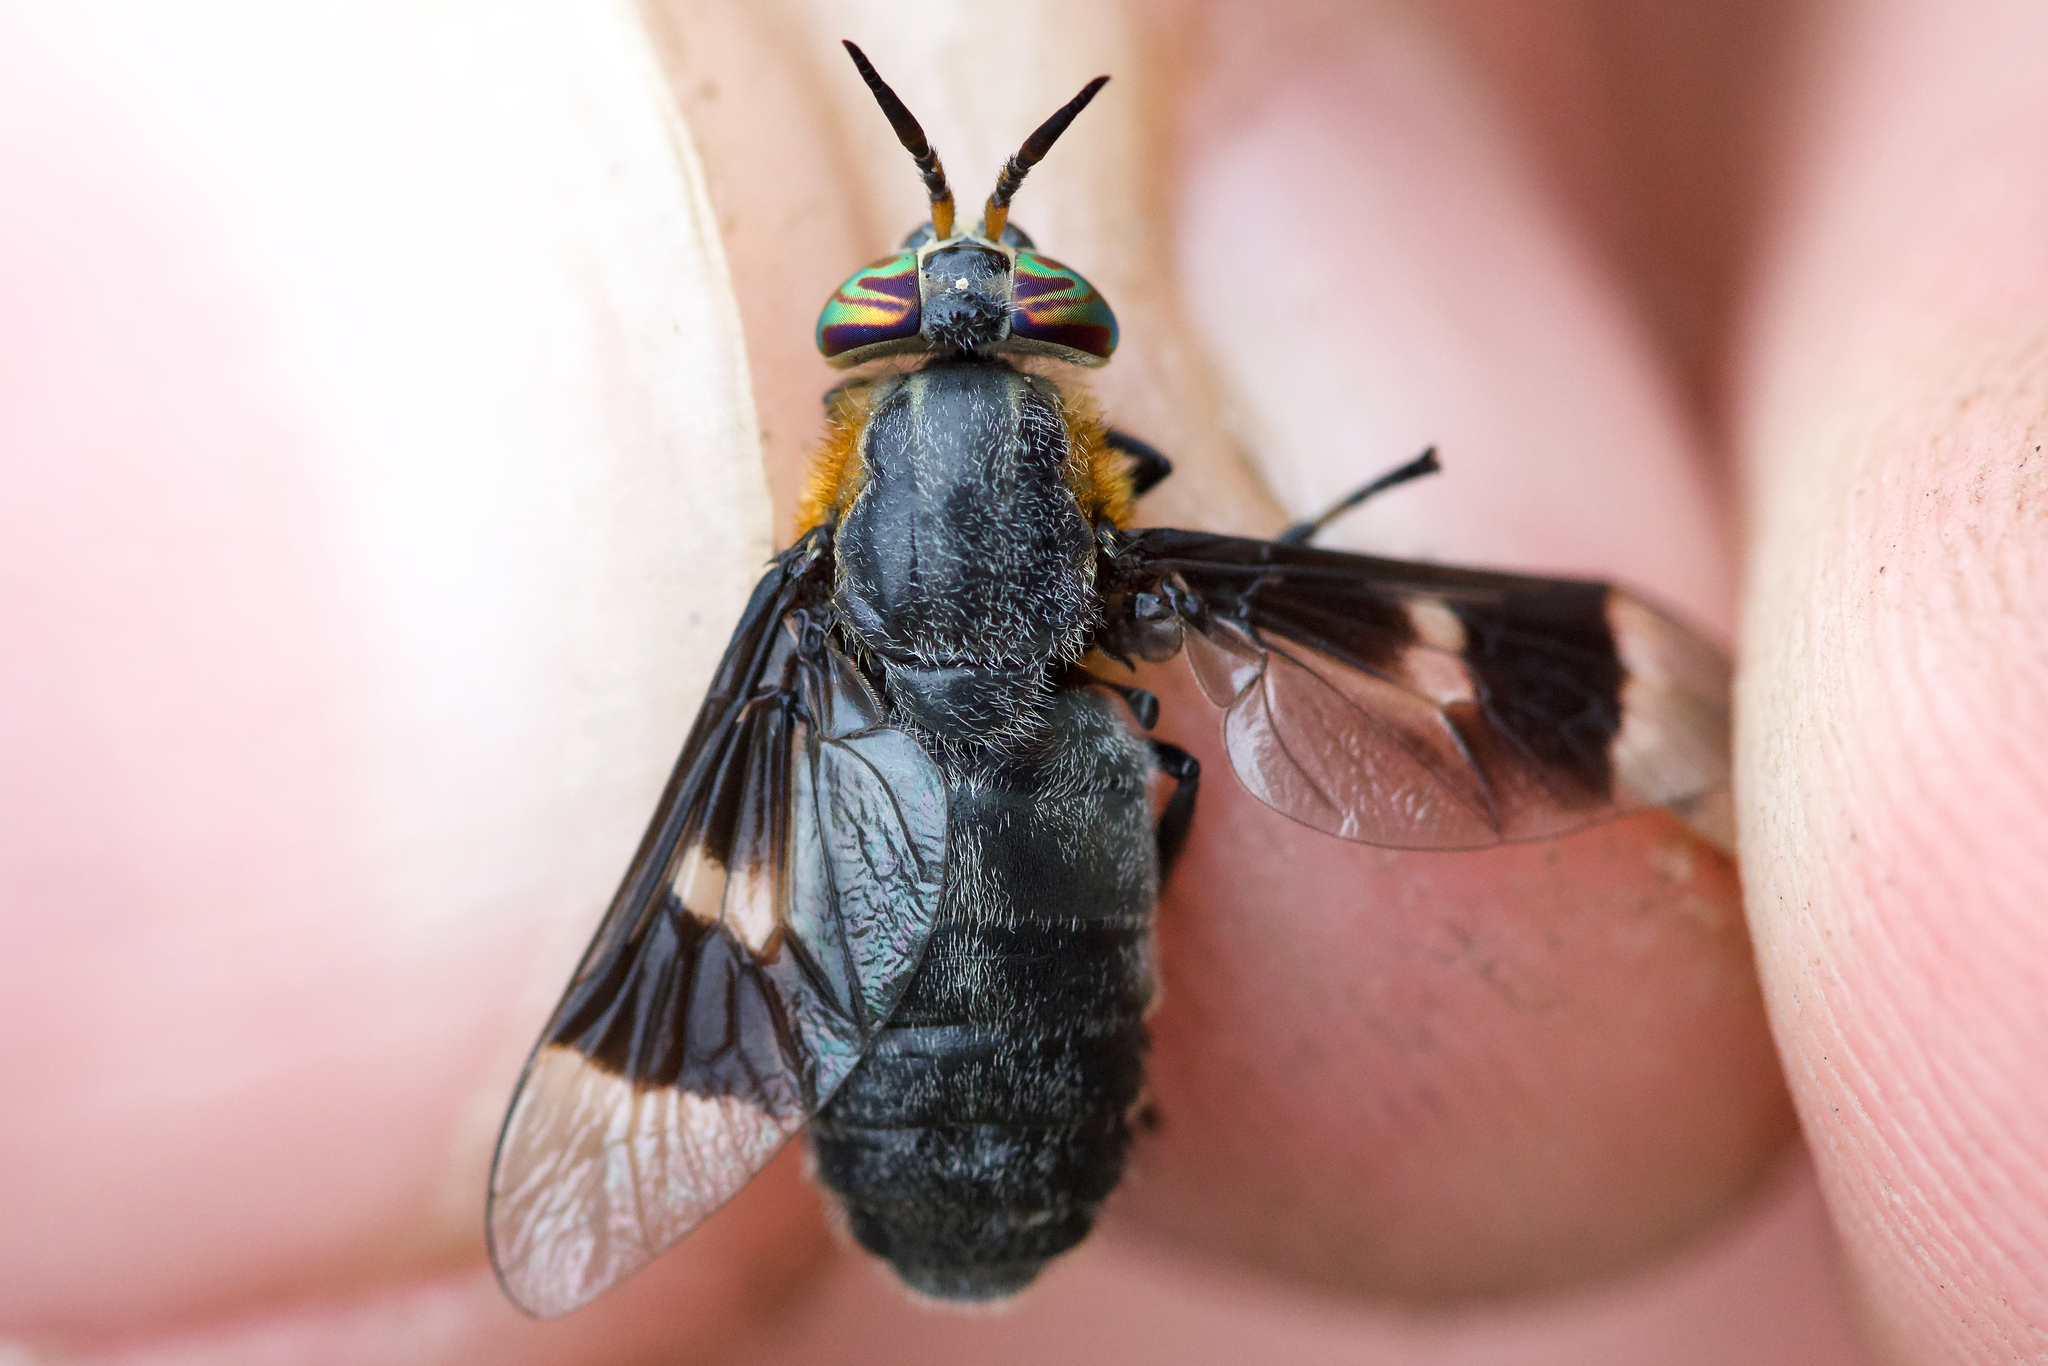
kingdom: Animalia
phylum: Arthropoda
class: Insecta
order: Diptera
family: Tabanidae
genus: Chrysops
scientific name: Chrysops cincticornis
